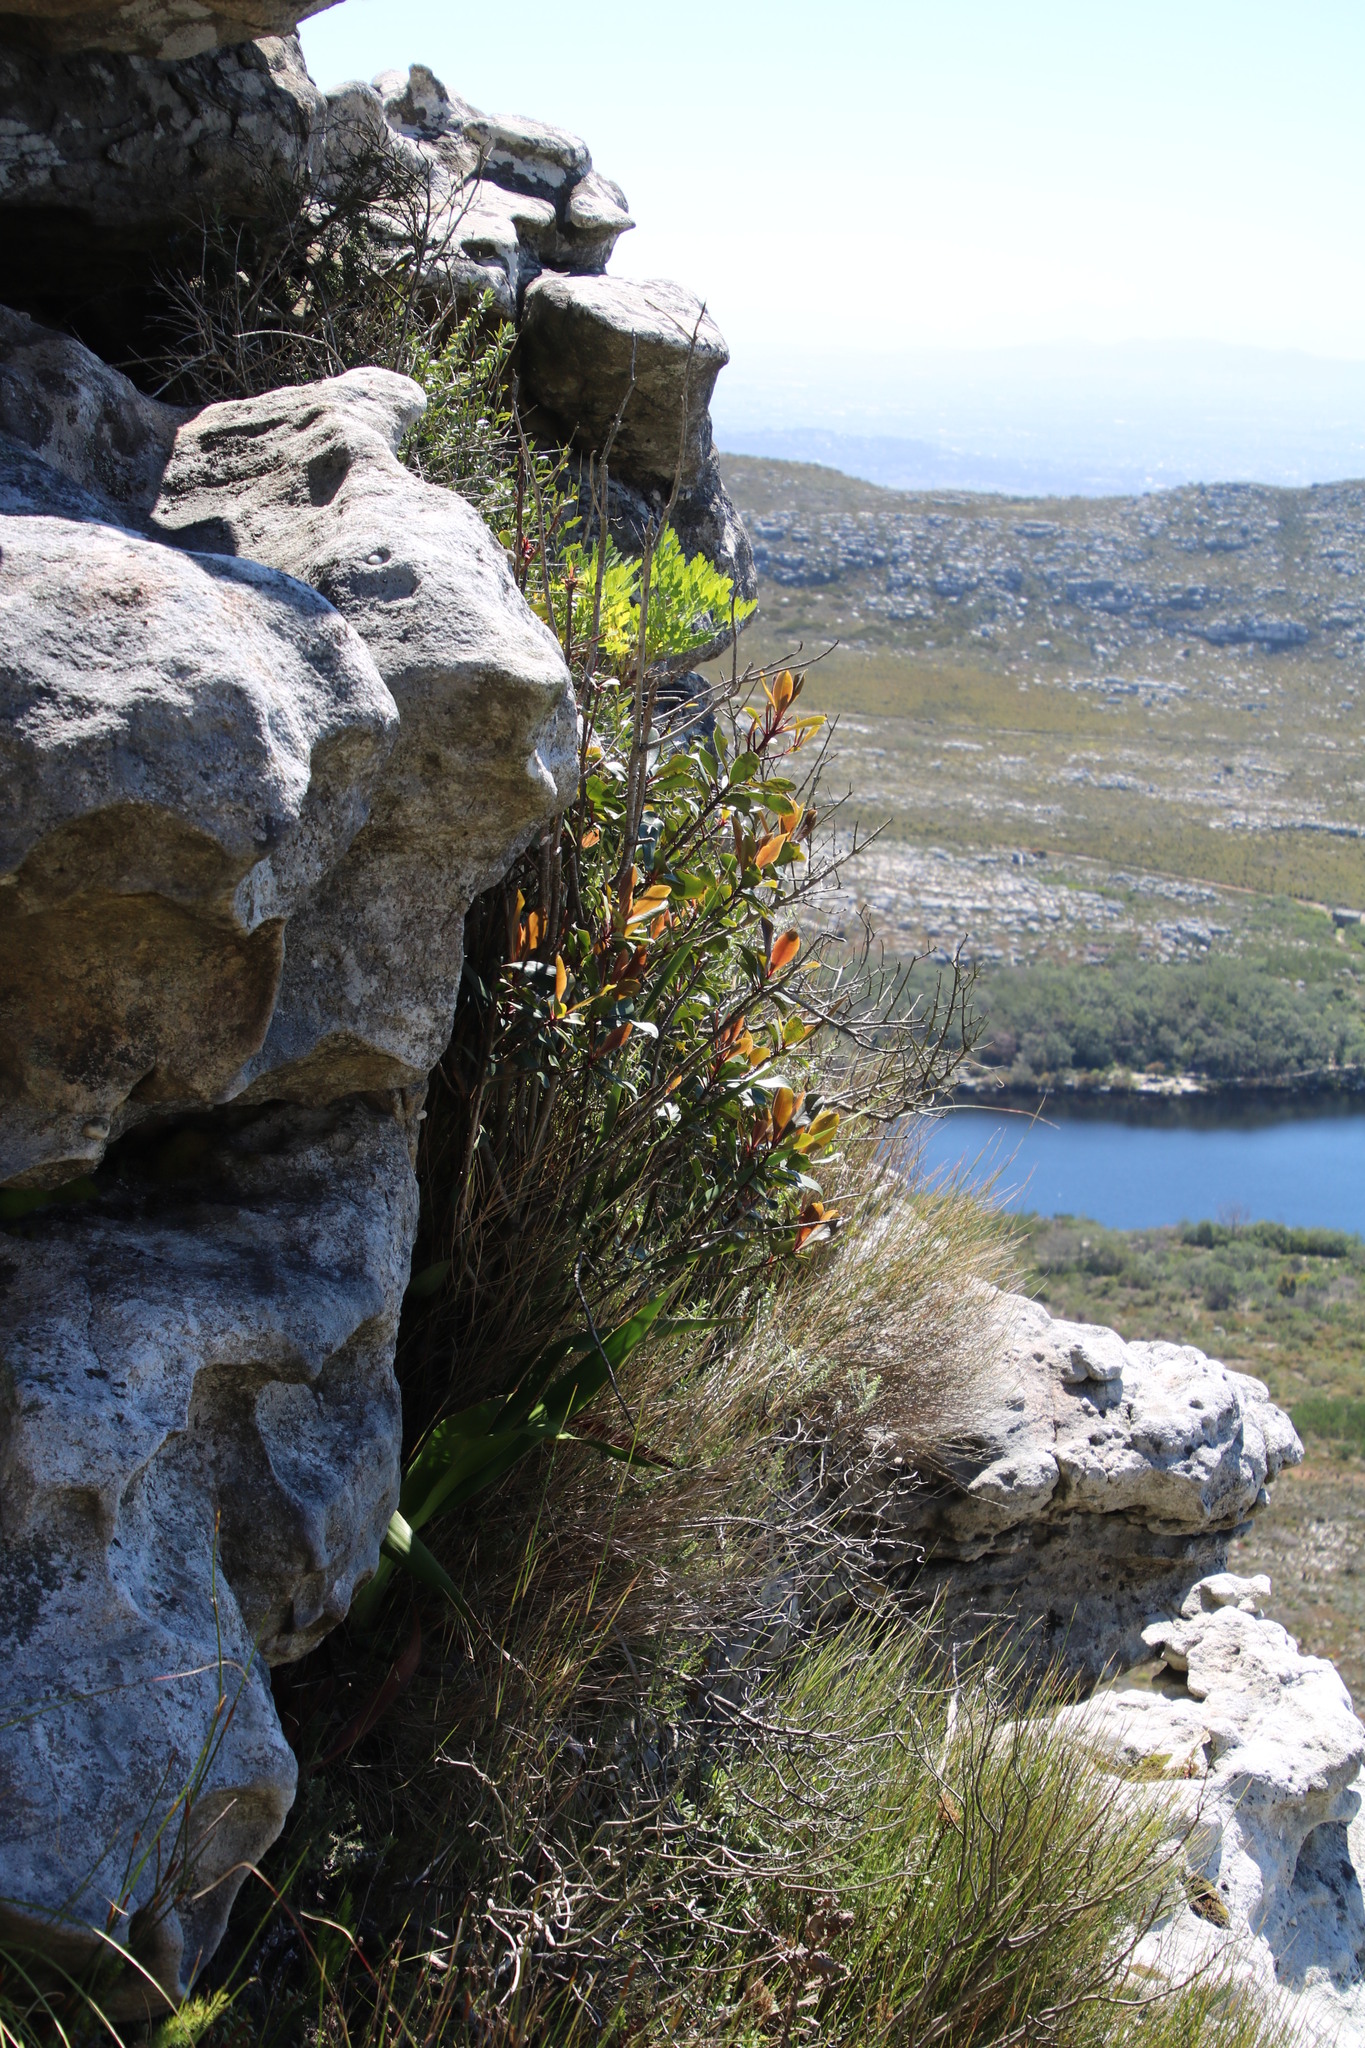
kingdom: Plantae
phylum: Tracheophyta
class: Magnoliopsida
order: Ericales
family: Primulaceae
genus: Myrsine
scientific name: Myrsine melanophloeos
